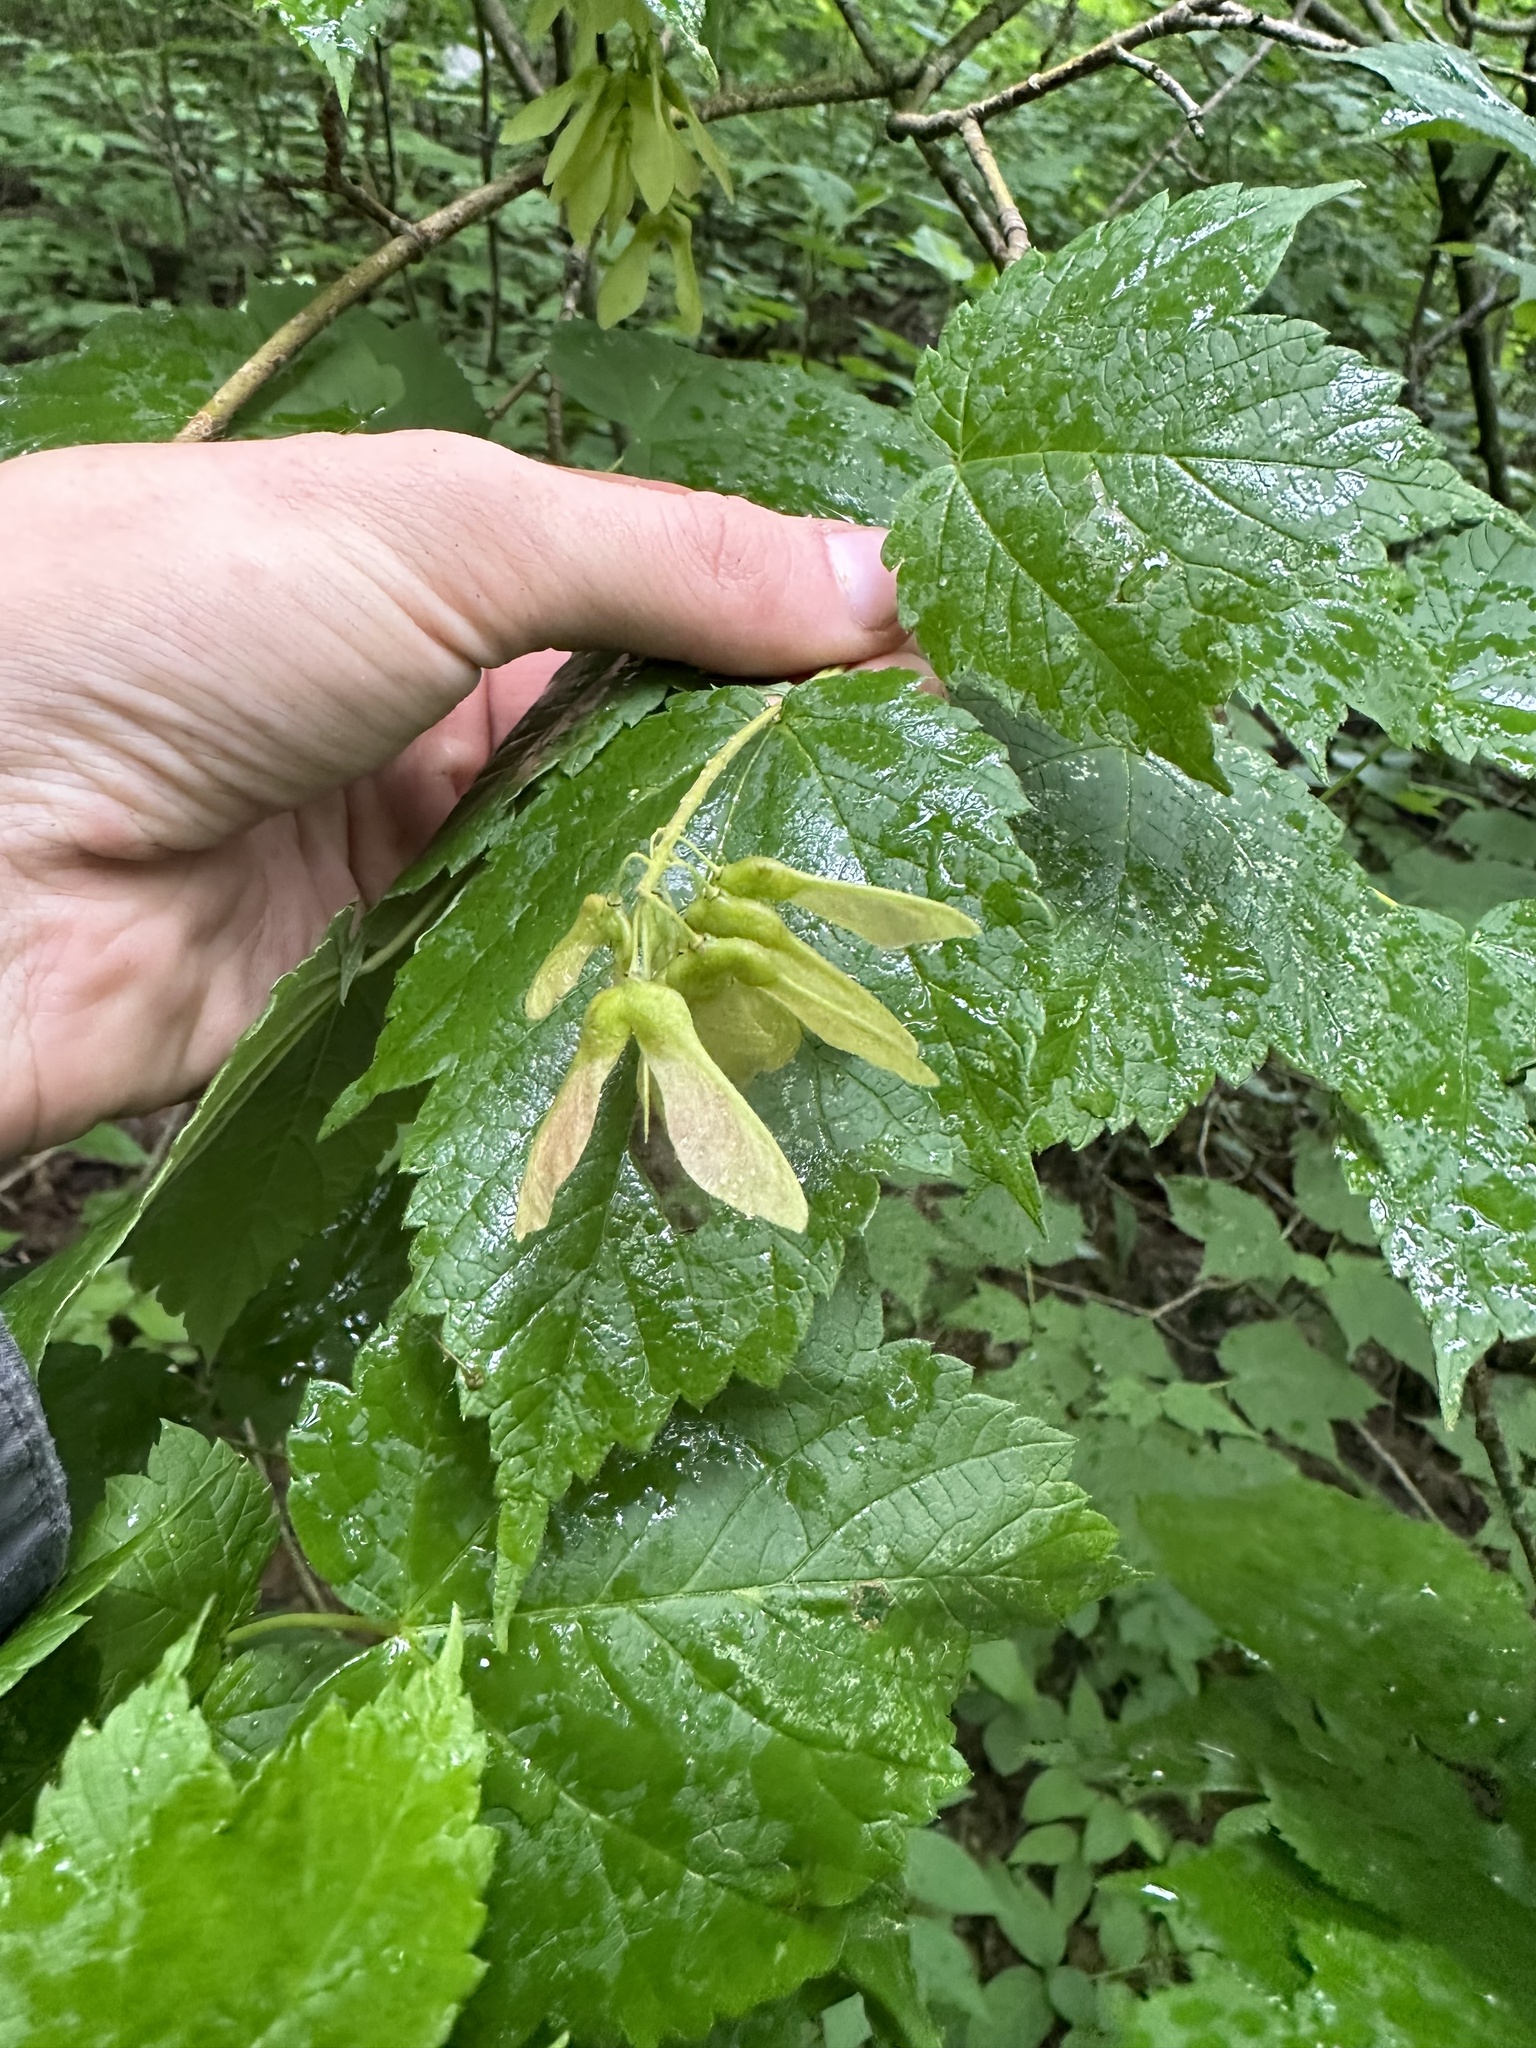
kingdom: Plantae
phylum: Tracheophyta
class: Magnoliopsida
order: Sapindales
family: Sapindaceae
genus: Acer
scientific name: Acer spicatum
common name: Mountain maple
